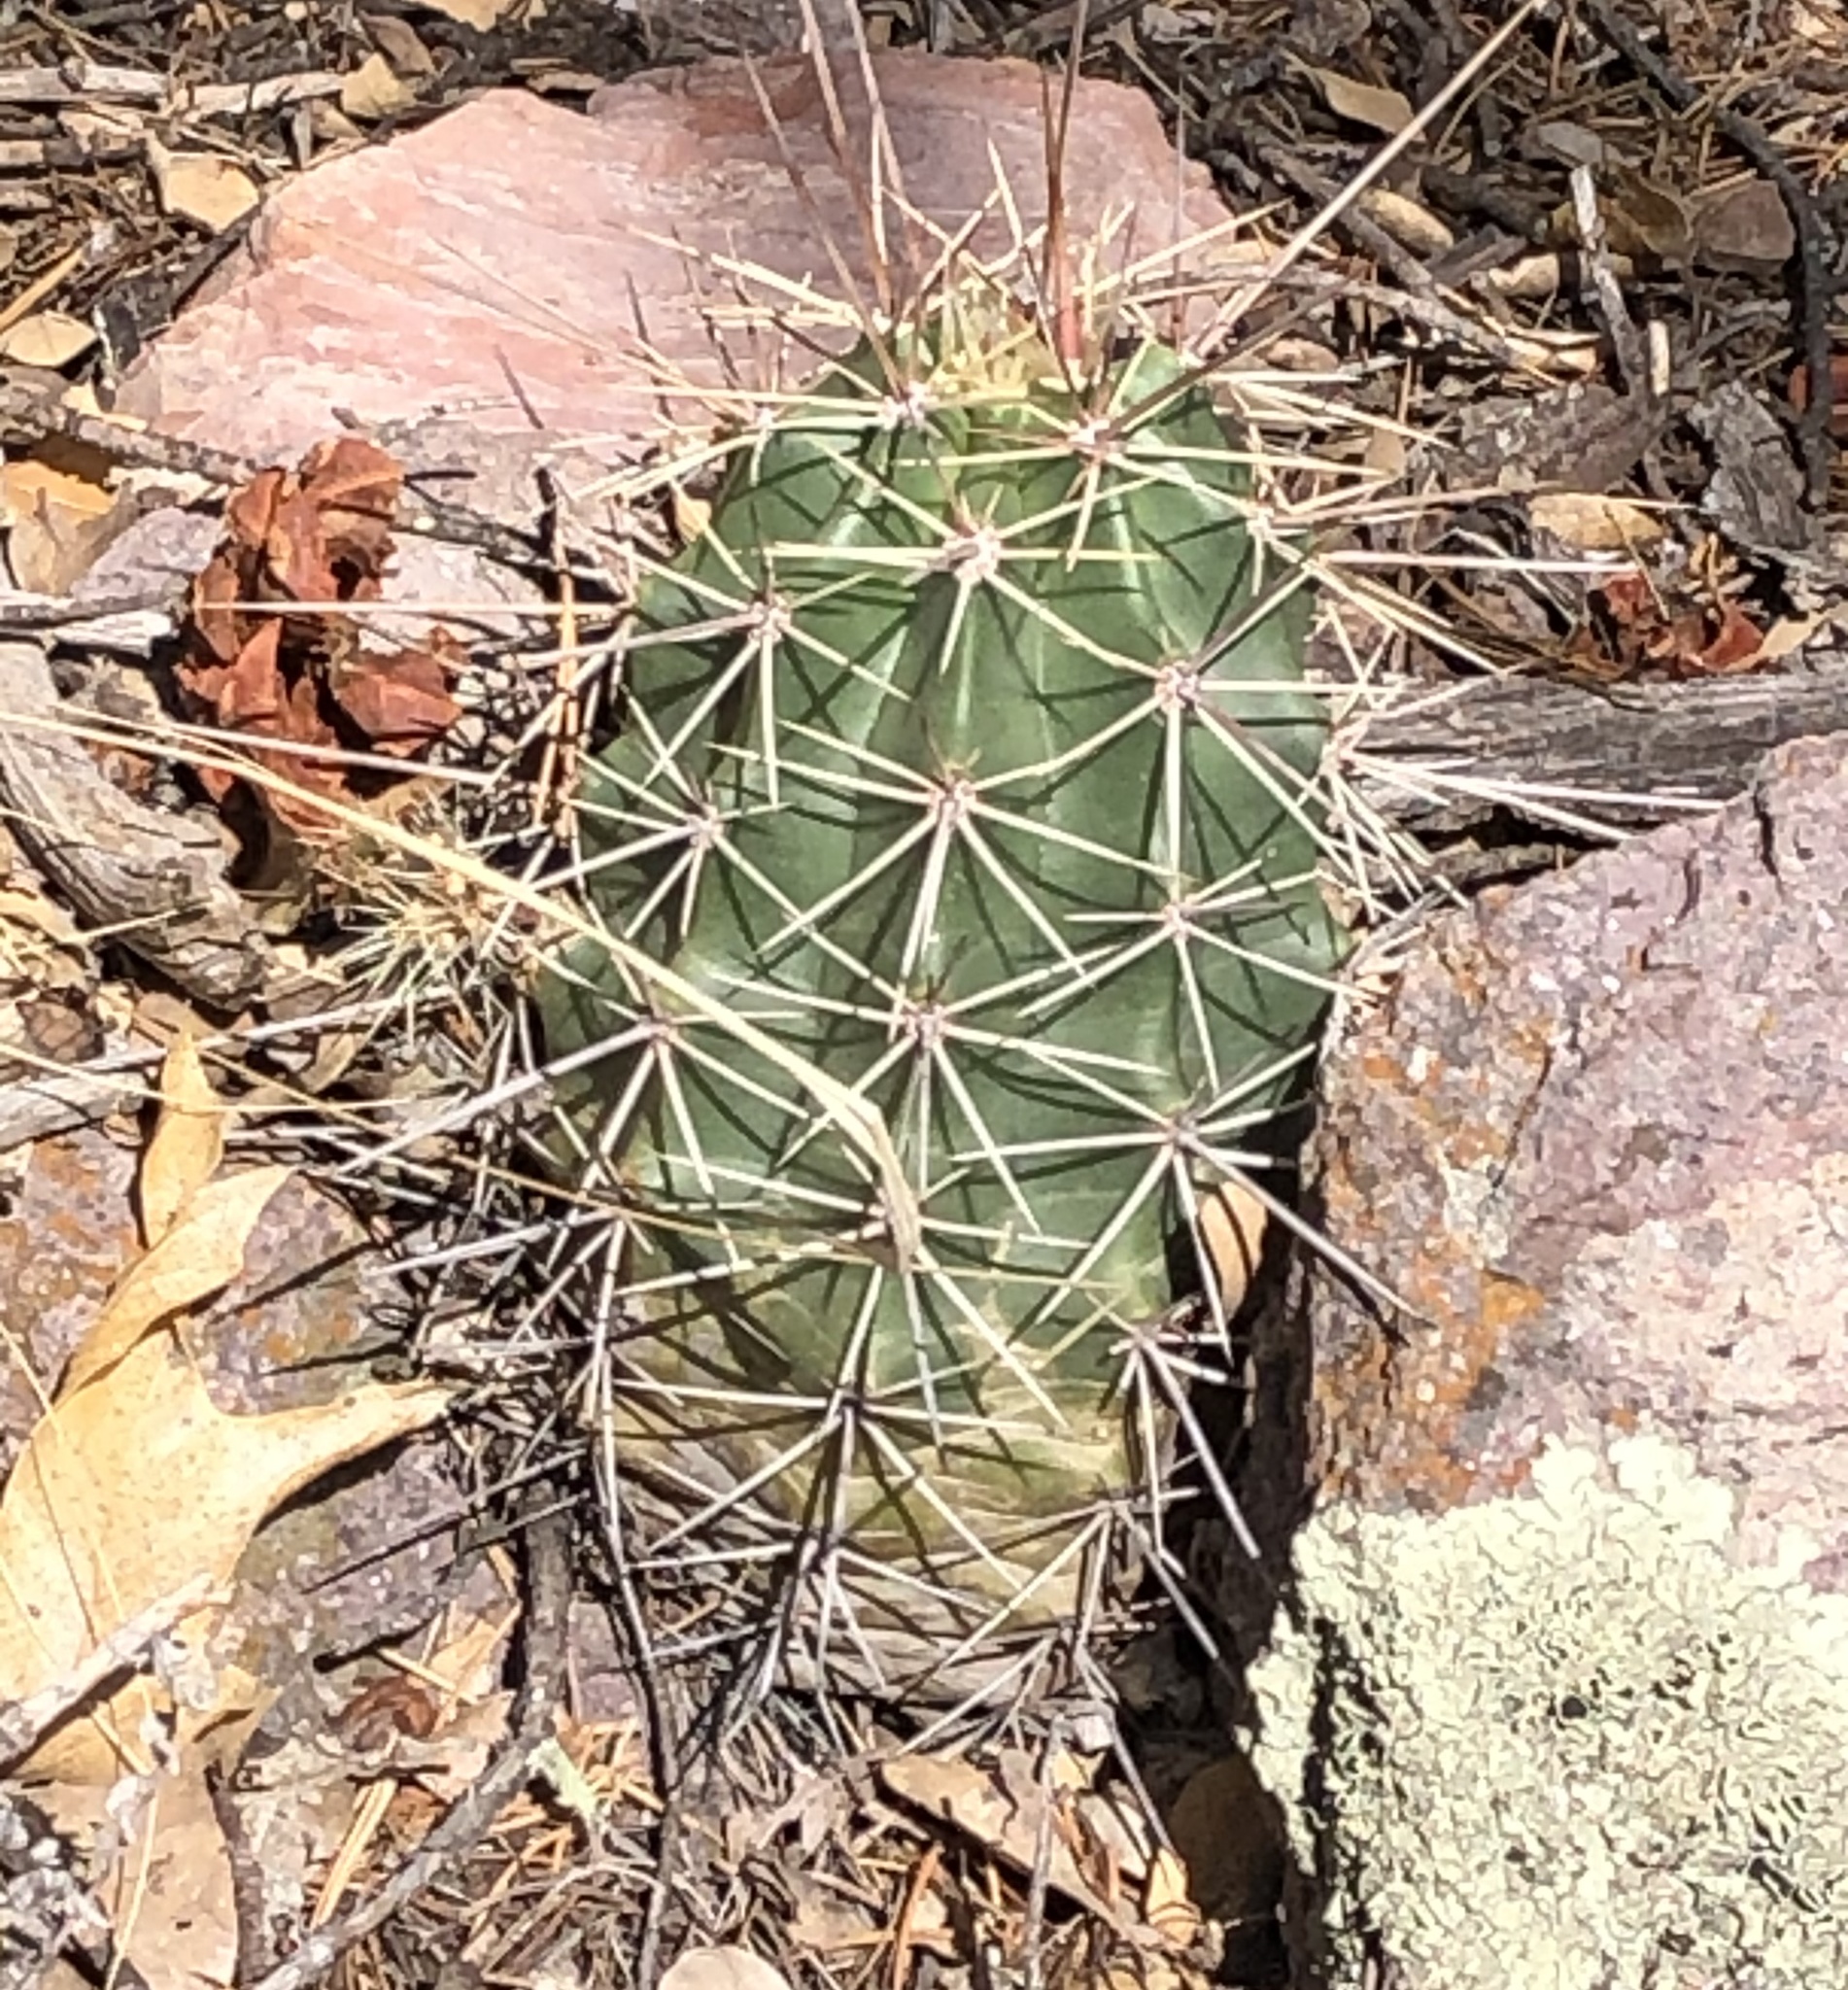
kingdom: Plantae
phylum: Tracheophyta
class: Magnoliopsida
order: Caryophyllales
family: Cactaceae
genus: Echinocereus
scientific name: Echinocereus coccineus
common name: Scarlet hedgehog cactus
